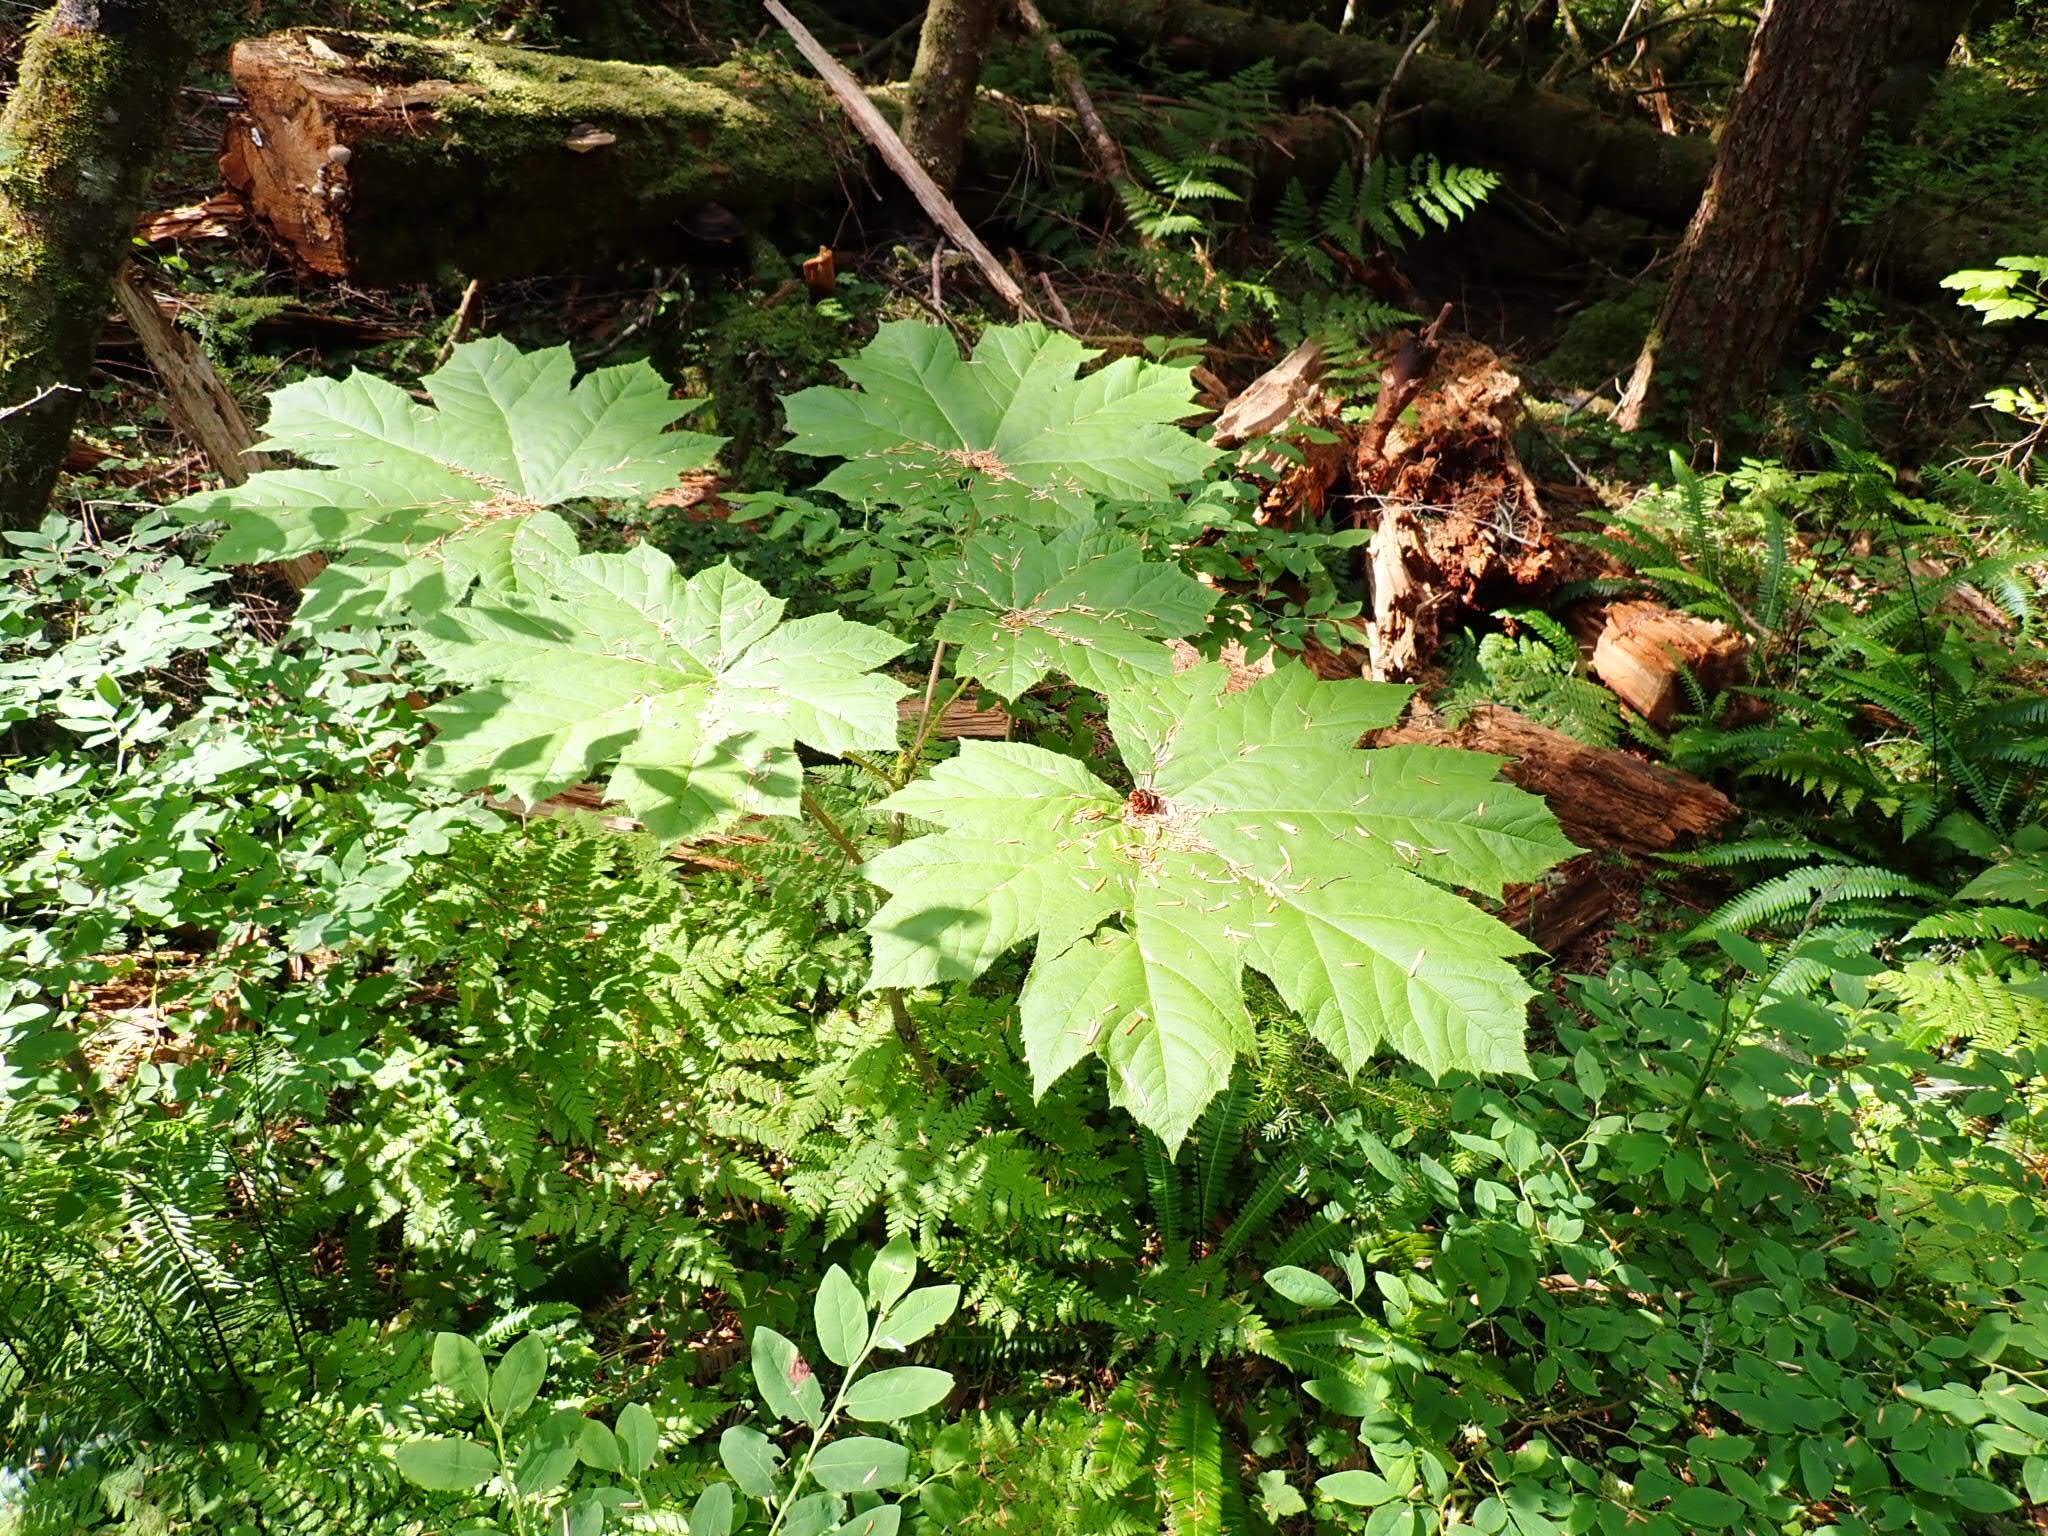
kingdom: Plantae
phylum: Tracheophyta
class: Magnoliopsida
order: Apiales
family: Araliaceae
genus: Oplopanax
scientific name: Oplopanax horridus
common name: Devil's walking-stick
